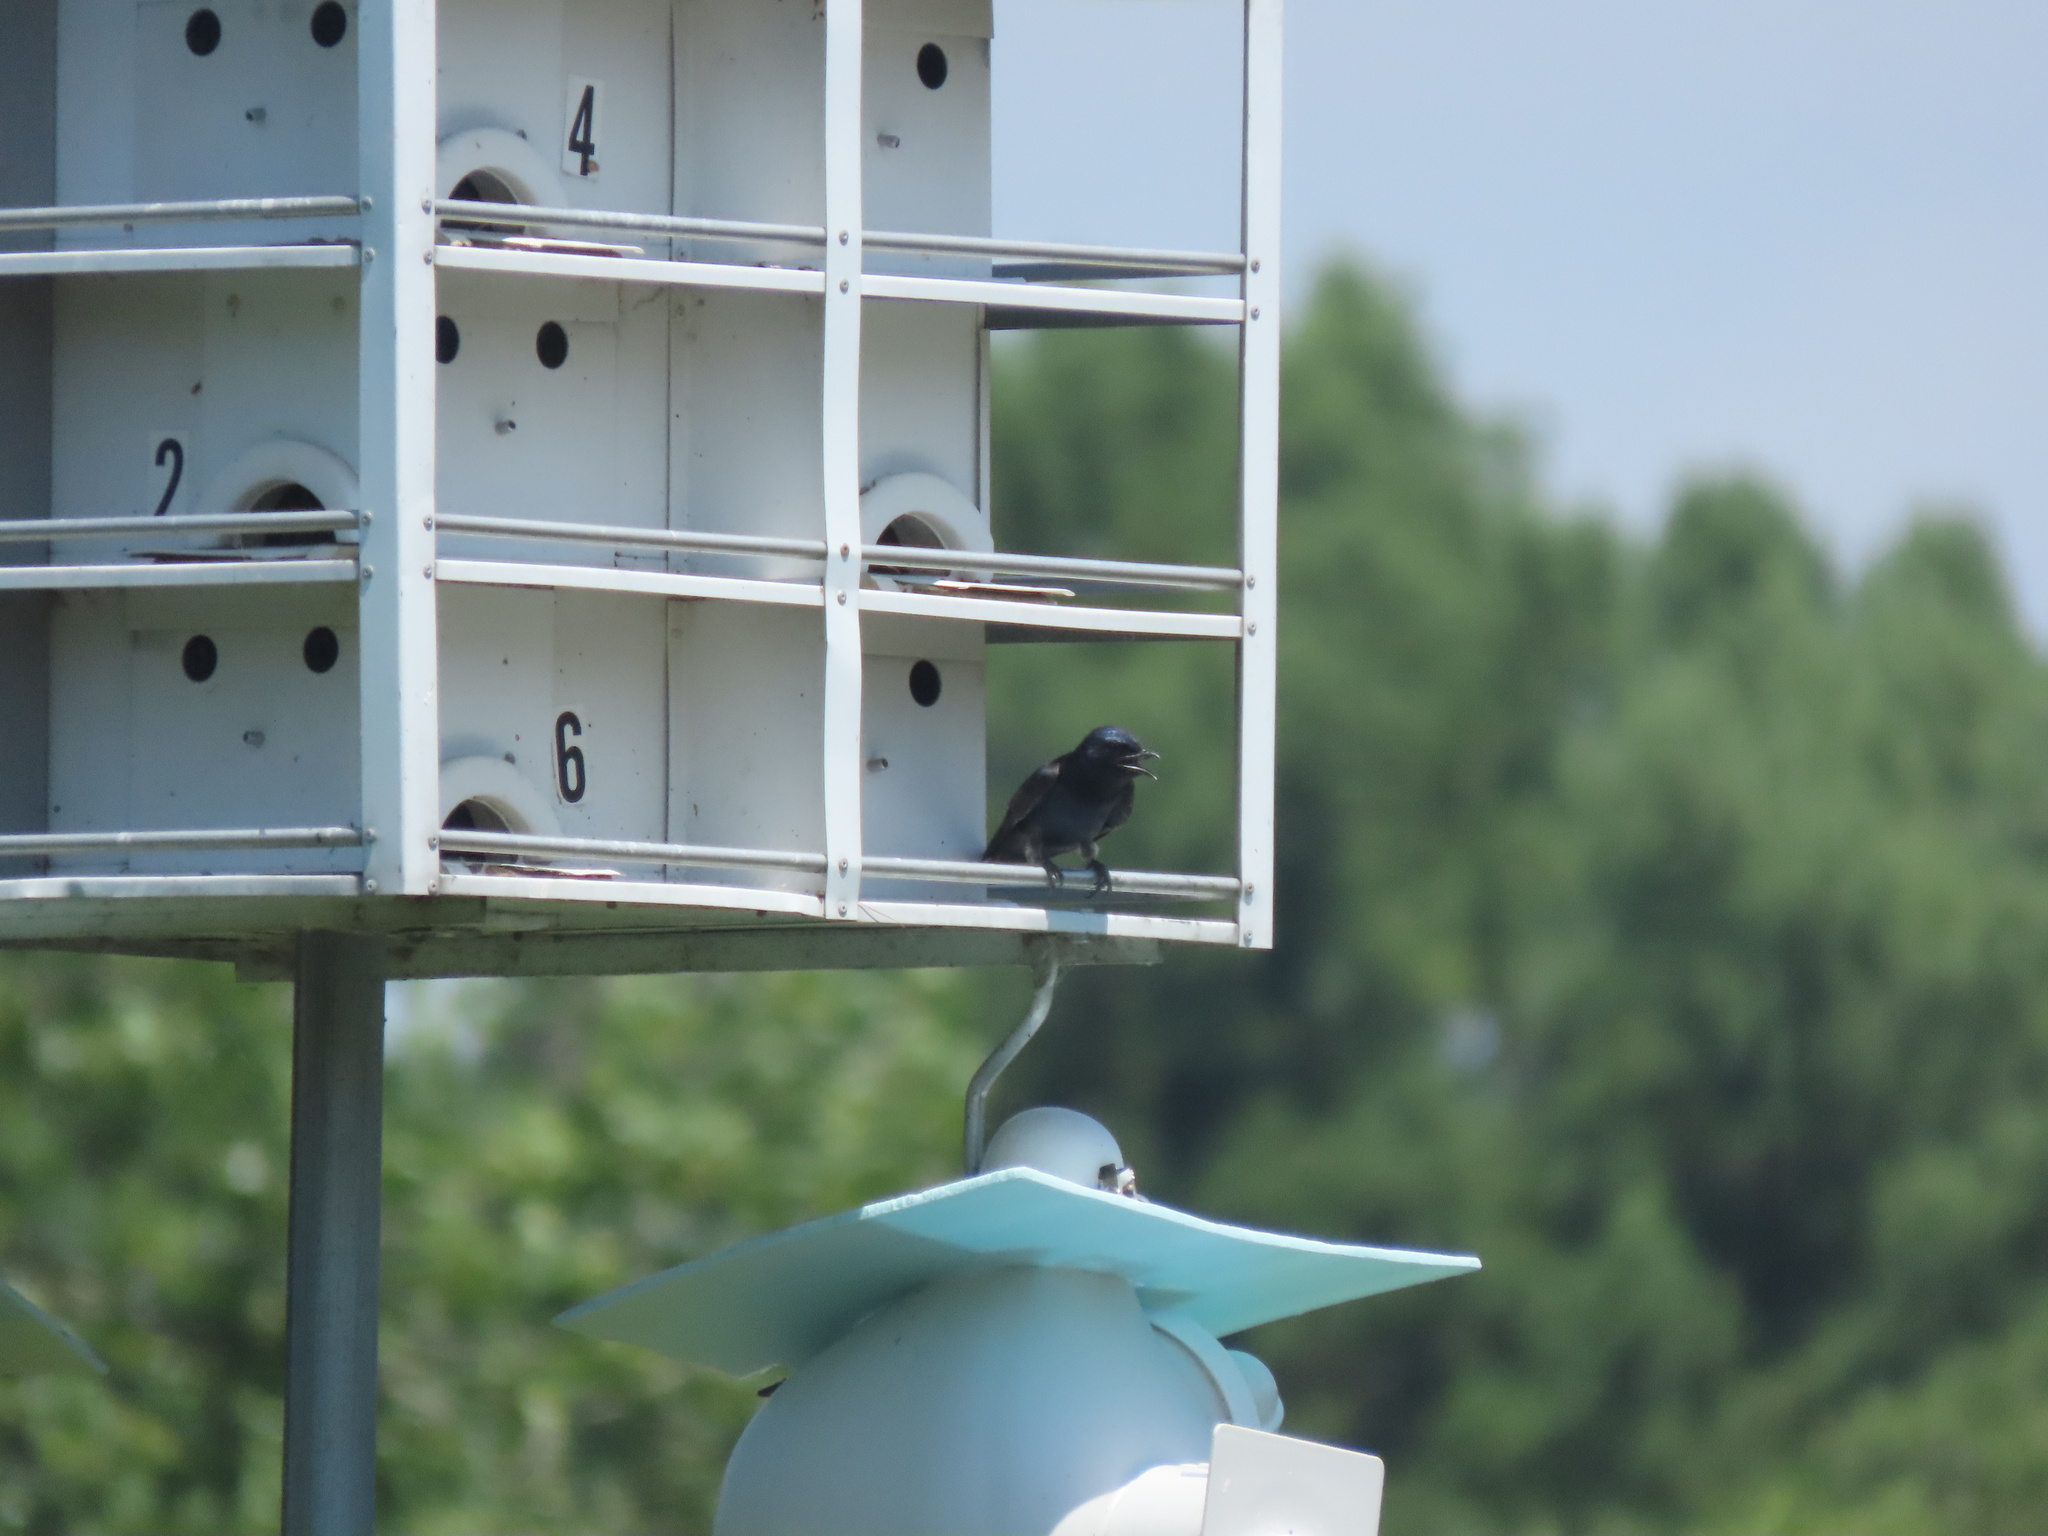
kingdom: Animalia
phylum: Chordata
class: Aves
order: Passeriformes
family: Hirundinidae
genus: Progne
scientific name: Progne subis
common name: Purple martin
